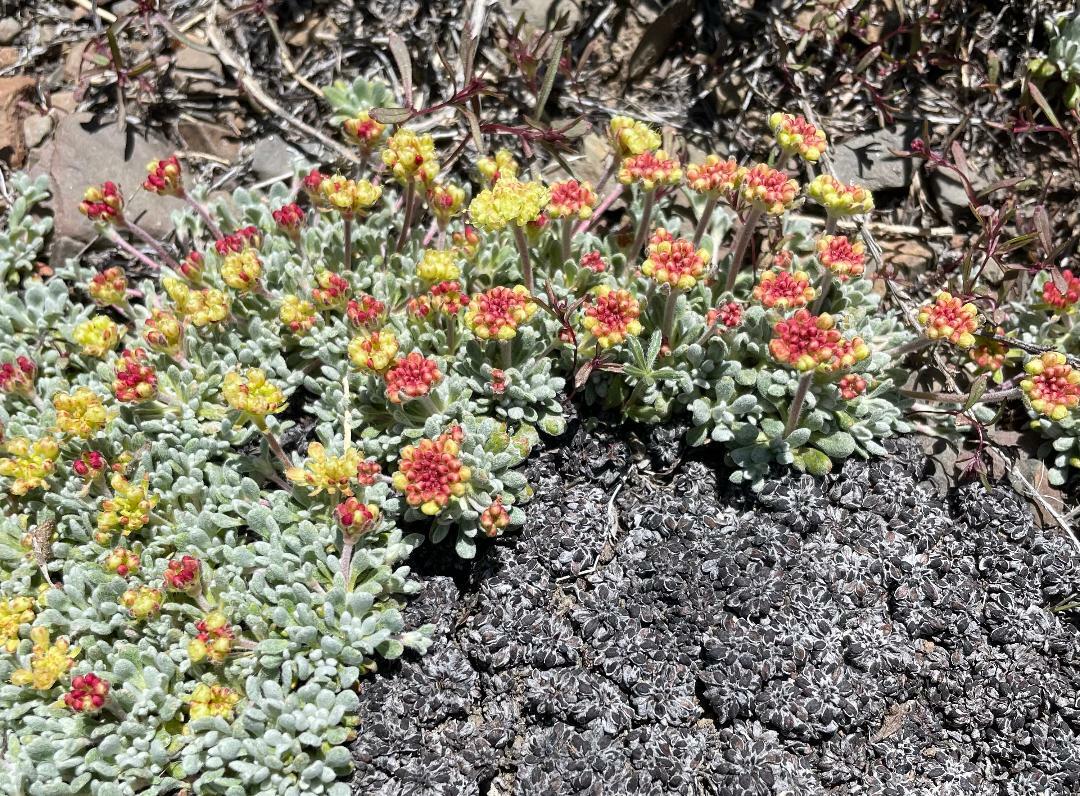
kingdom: Plantae
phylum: Tracheophyta
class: Magnoliopsida
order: Caryophyllales
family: Polygonaceae
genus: Eriogonum
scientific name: Eriogonum caespitosum
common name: Matted wild buckwheat
